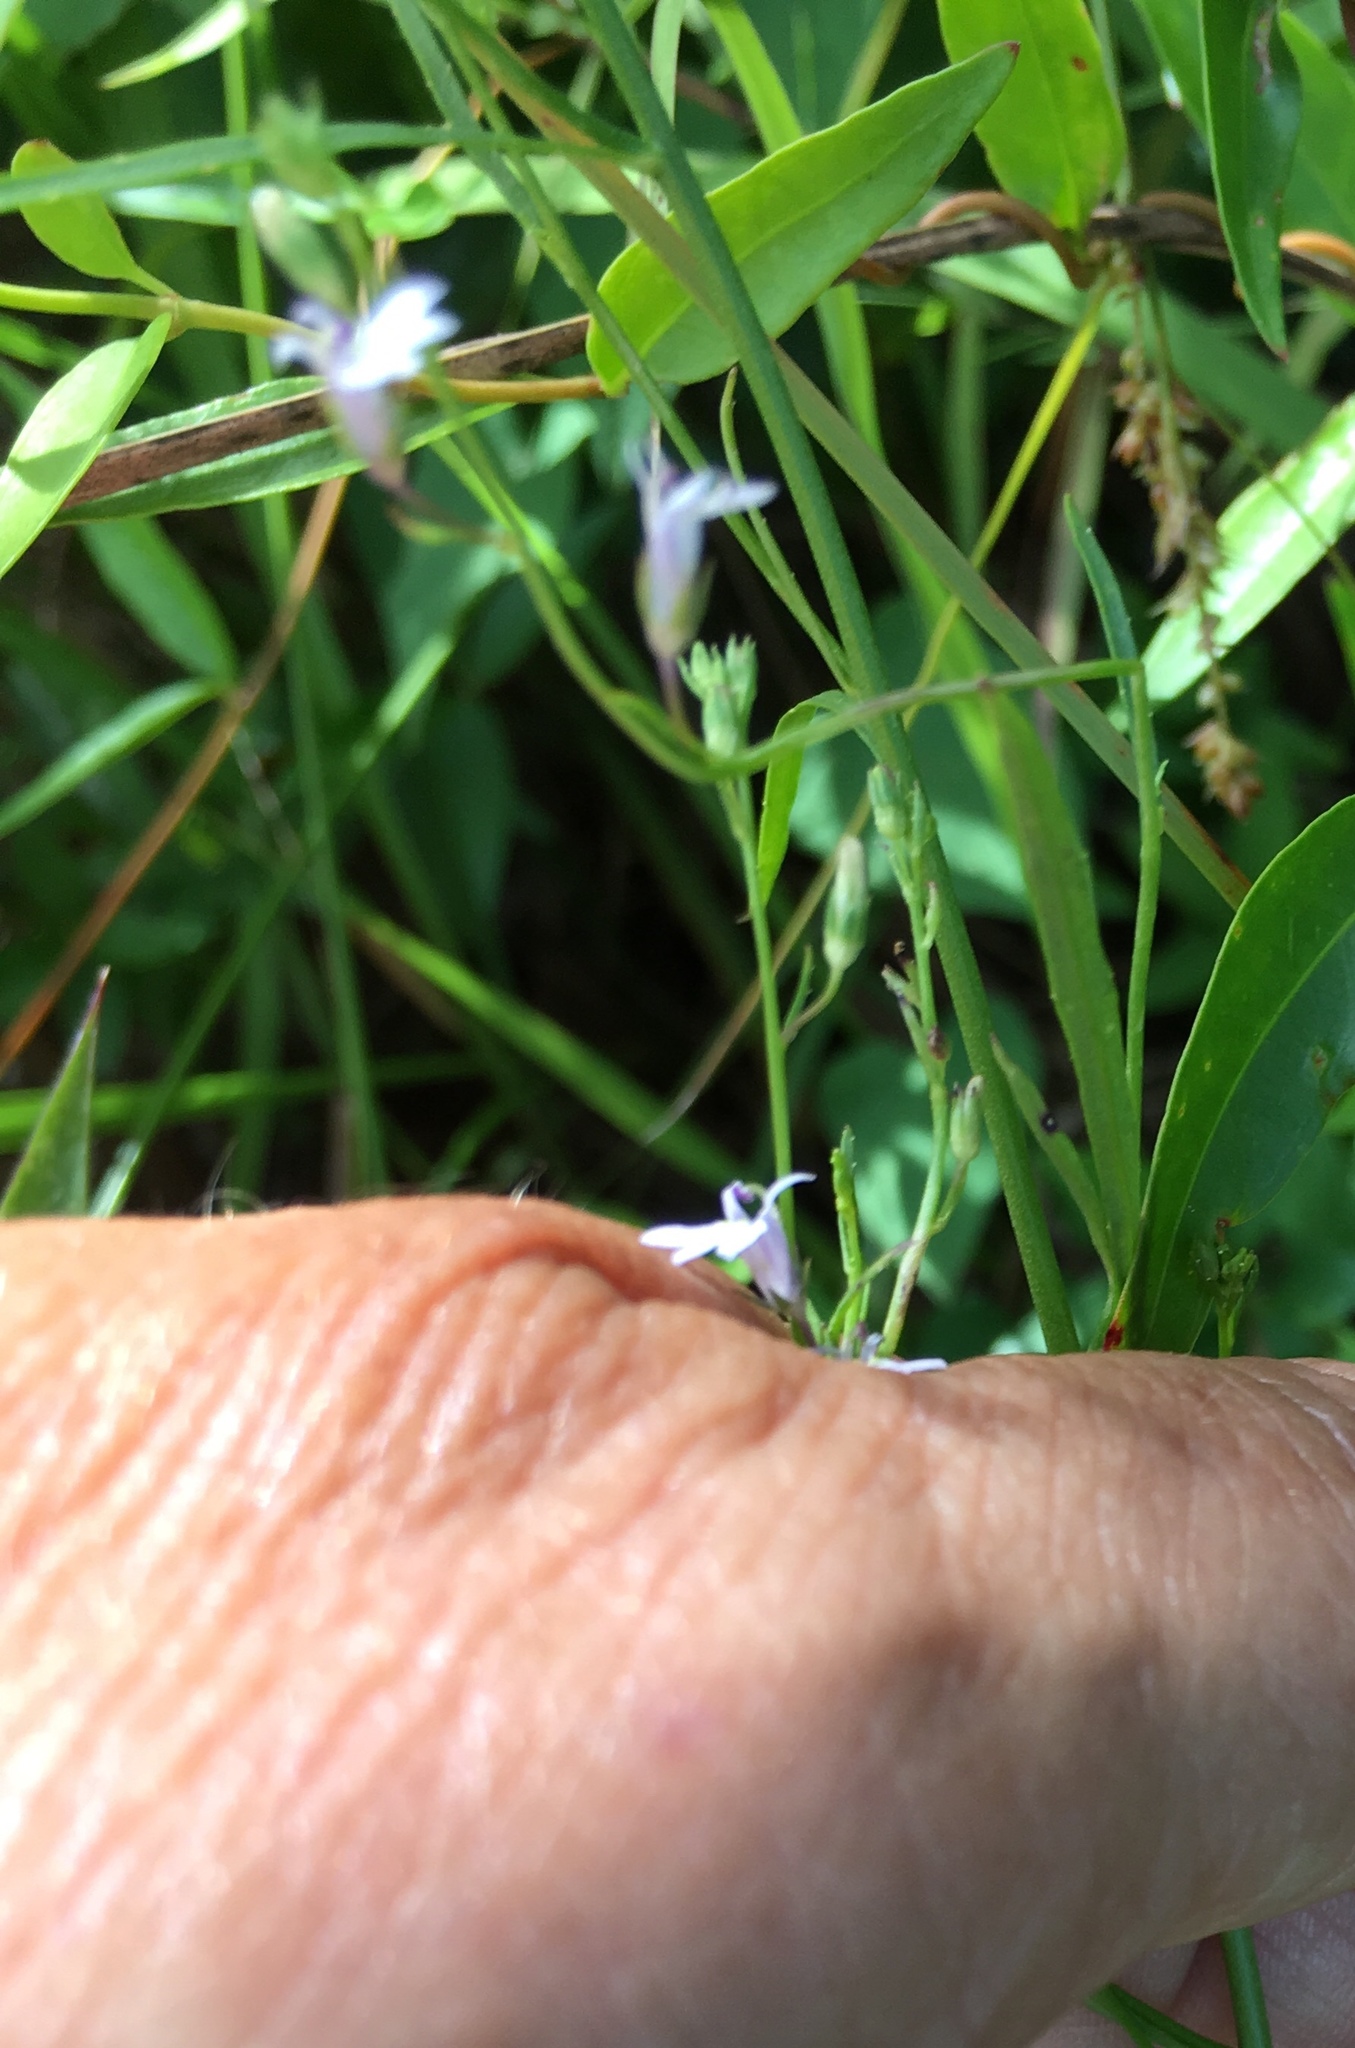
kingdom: Plantae
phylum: Tracheophyta
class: Magnoliopsida
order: Asterales
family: Campanulaceae
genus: Lobelia
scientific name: Lobelia nuttallii
